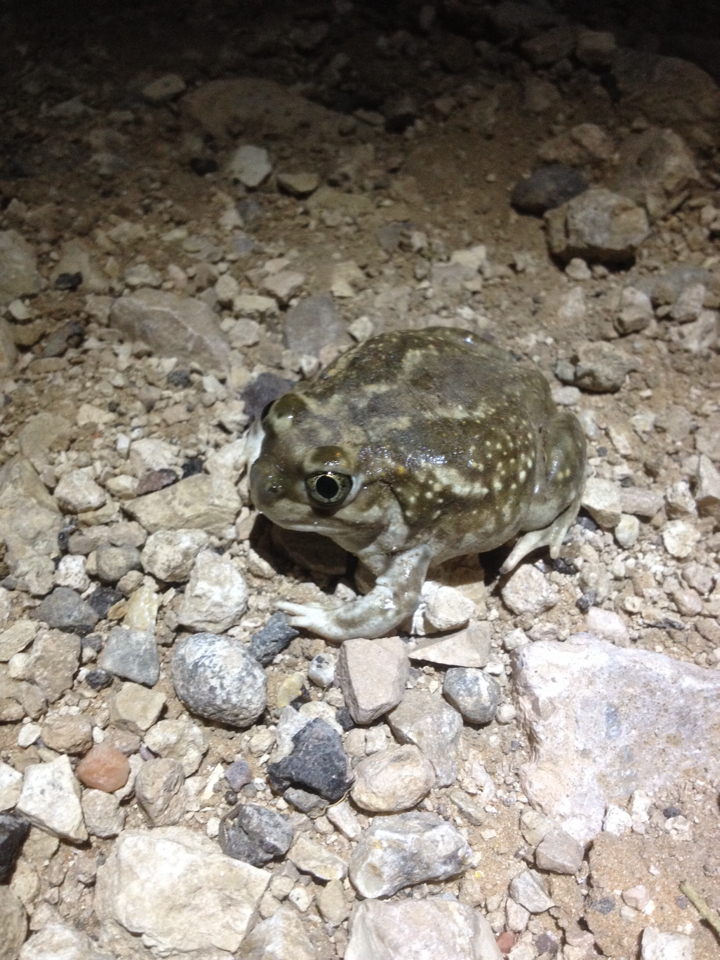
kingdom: Animalia
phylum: Chordata
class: Amphibia
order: Anura
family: Scaphiopodidae
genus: Spea
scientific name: Spea bombifrons
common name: Plains spadefoot
